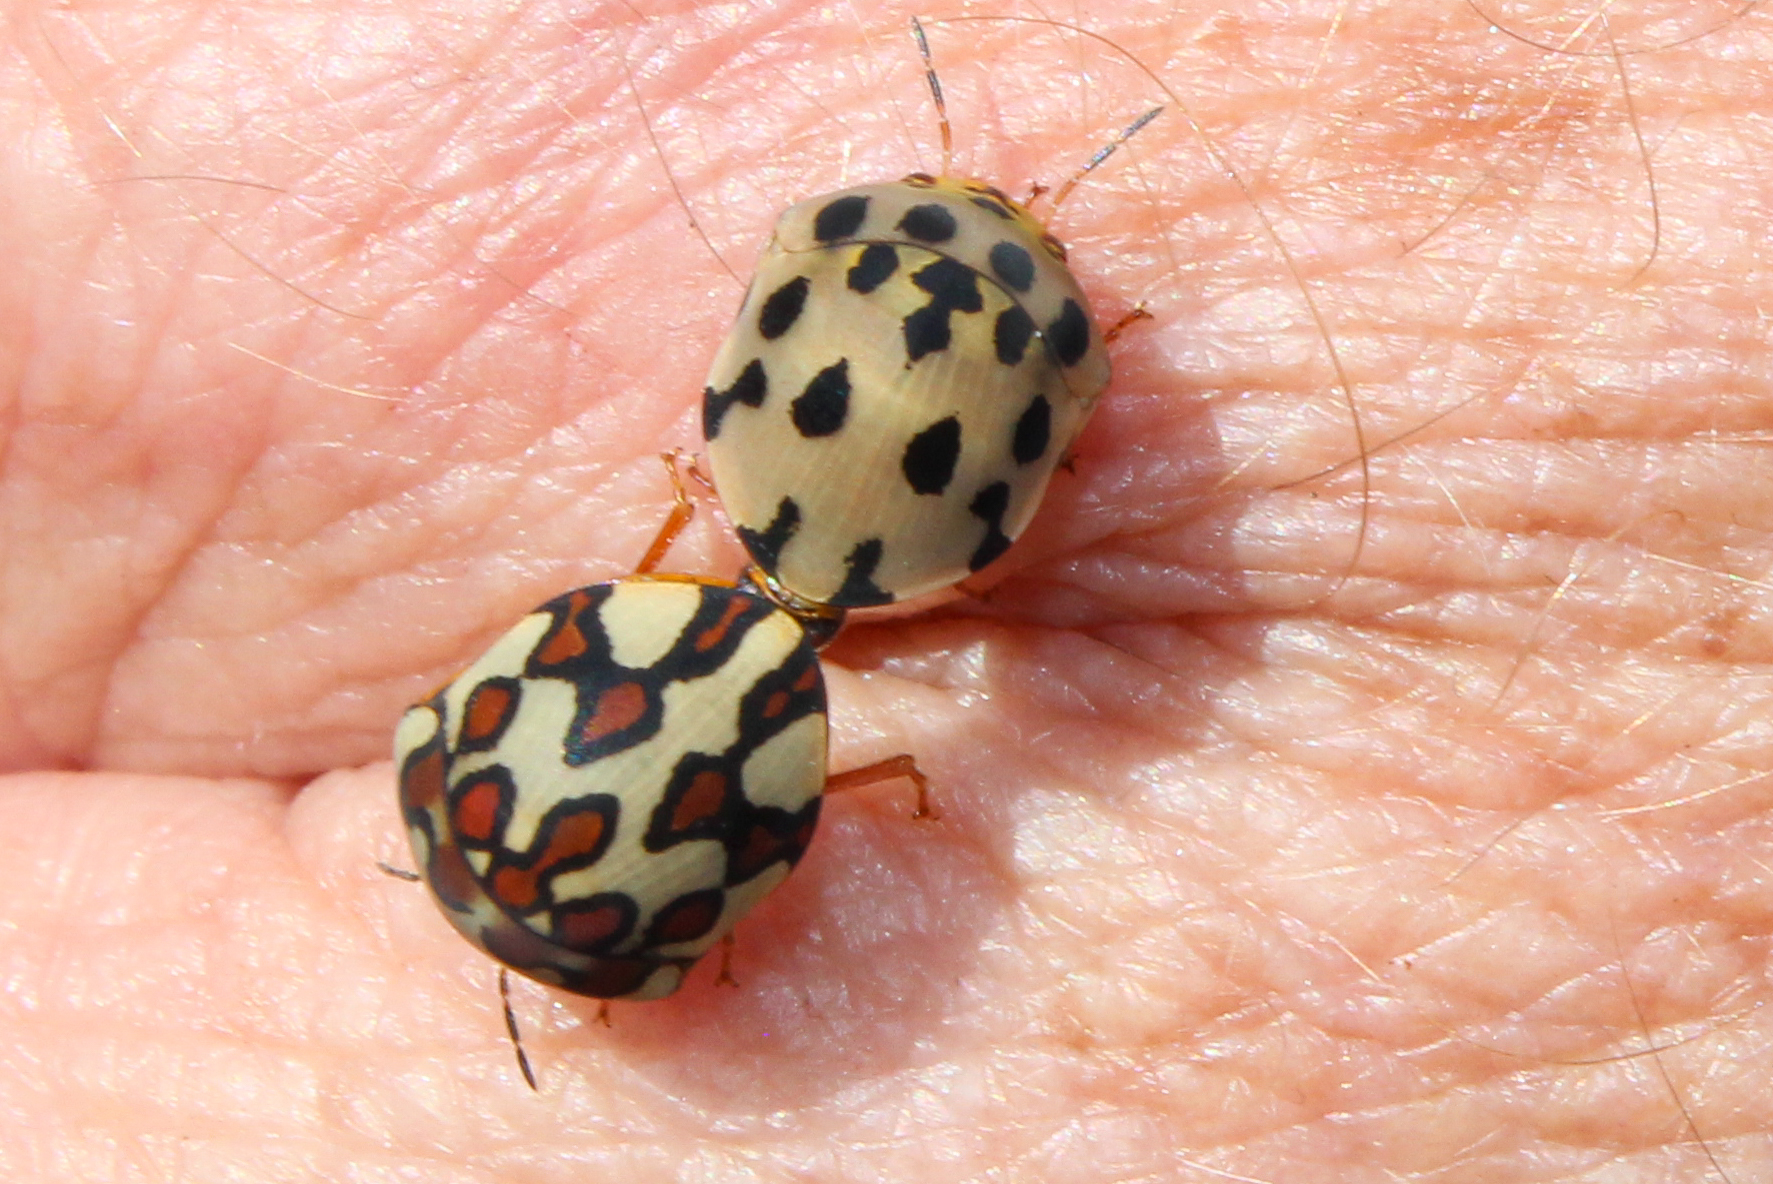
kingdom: Animalia
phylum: Arthropoda
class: Insecta
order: Hemiptera
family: Scutelleridae
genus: Sphaerocoris
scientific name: Sphaerocoris
